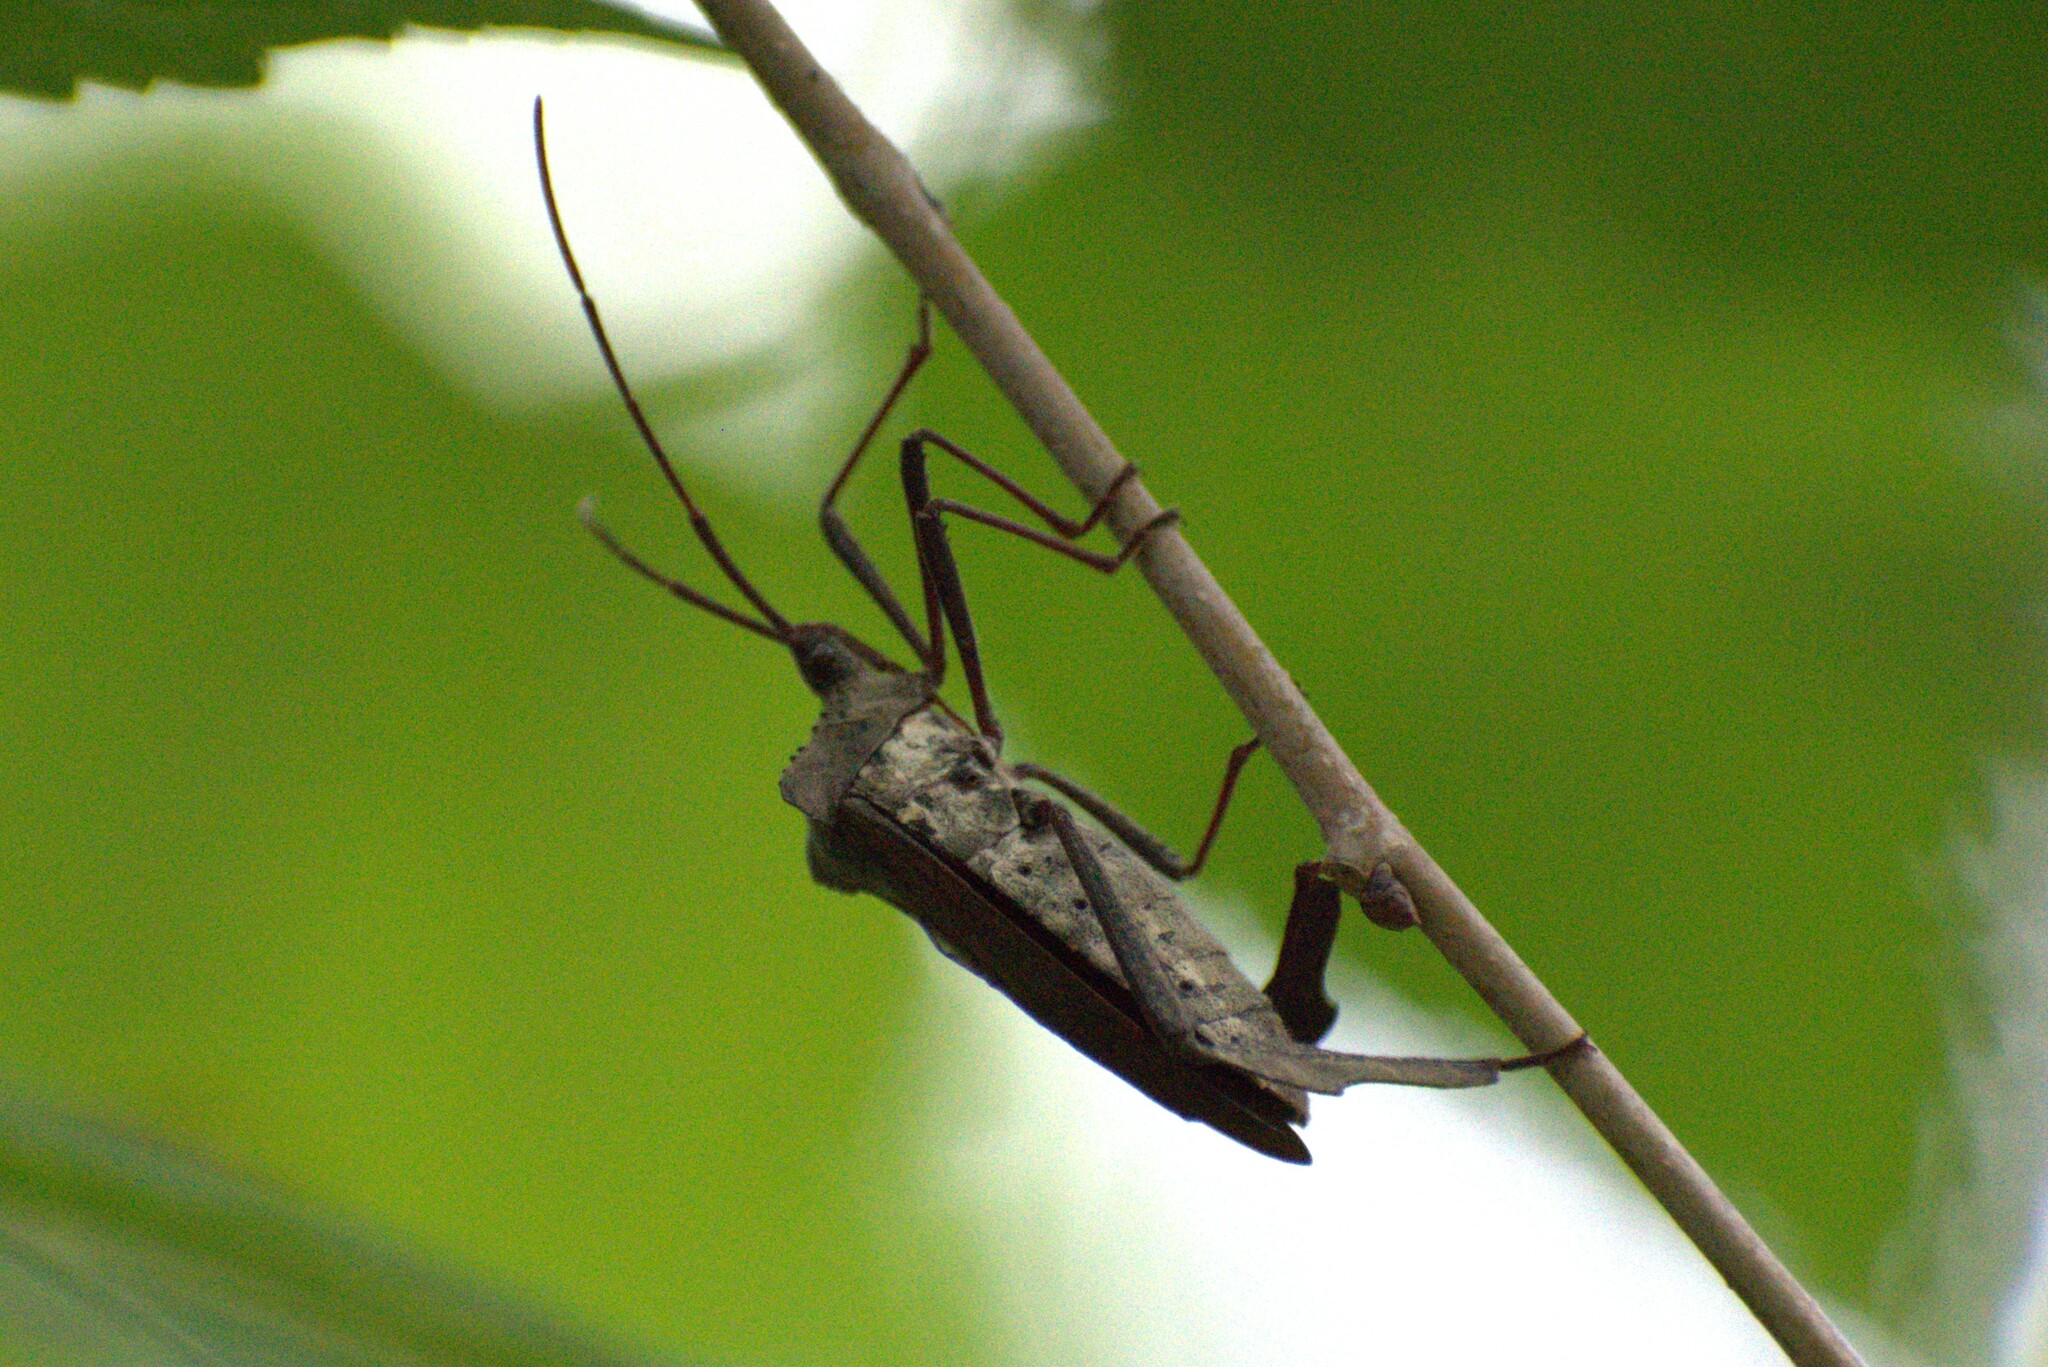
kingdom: Animalia
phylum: Arthropoda
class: Insecta
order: Hemiptera
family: Coreidae
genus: Acanthocephala
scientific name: Acanthocephala declivis
